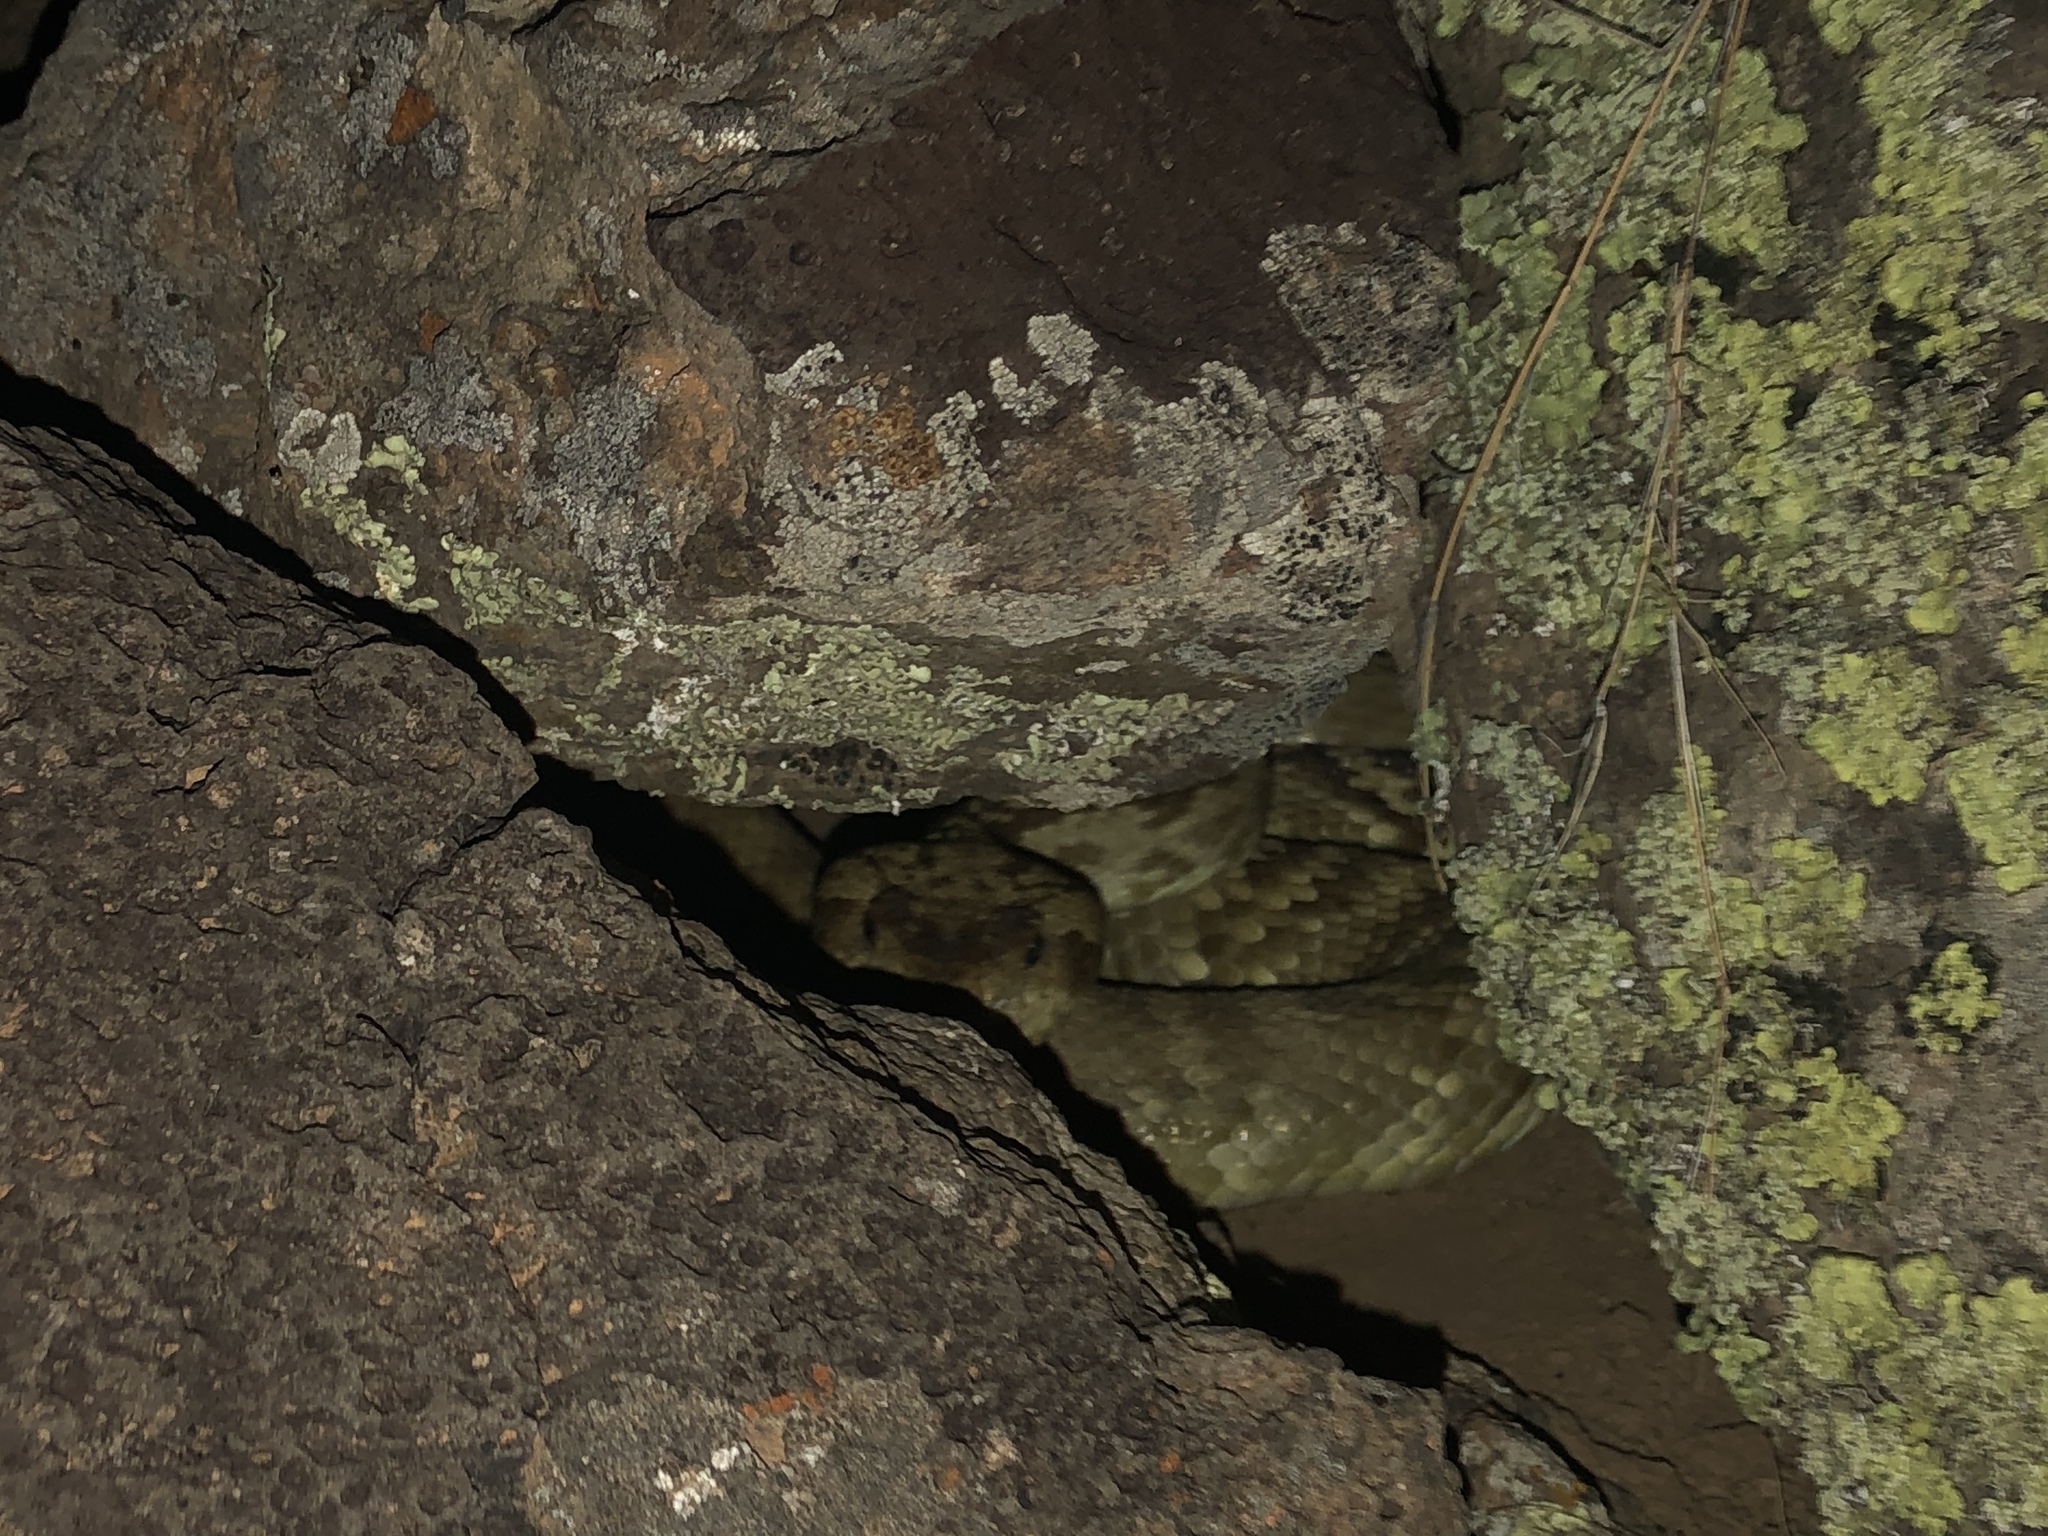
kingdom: Animalia
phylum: Chordata
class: Squamata
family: Viperidae
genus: Crotalus
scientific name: Crotalus ornatus
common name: Black-tailed rattlesnake
